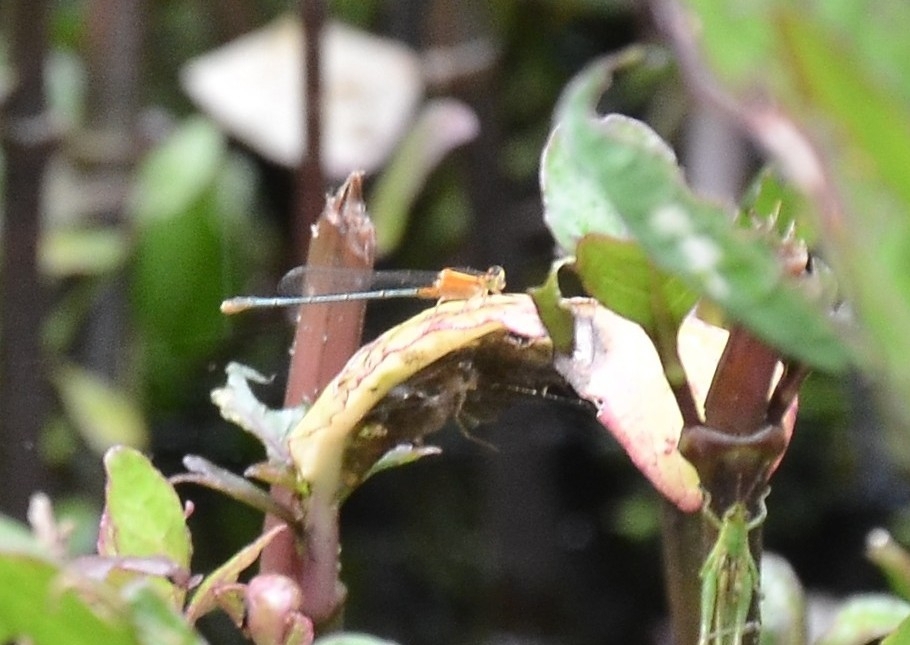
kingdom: Animalia
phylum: Arthropoda
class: Insecta
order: Odonata
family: Coenagrionidae
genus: Ischnura
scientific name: Ischnura senegalensis
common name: Tropical bluetail
